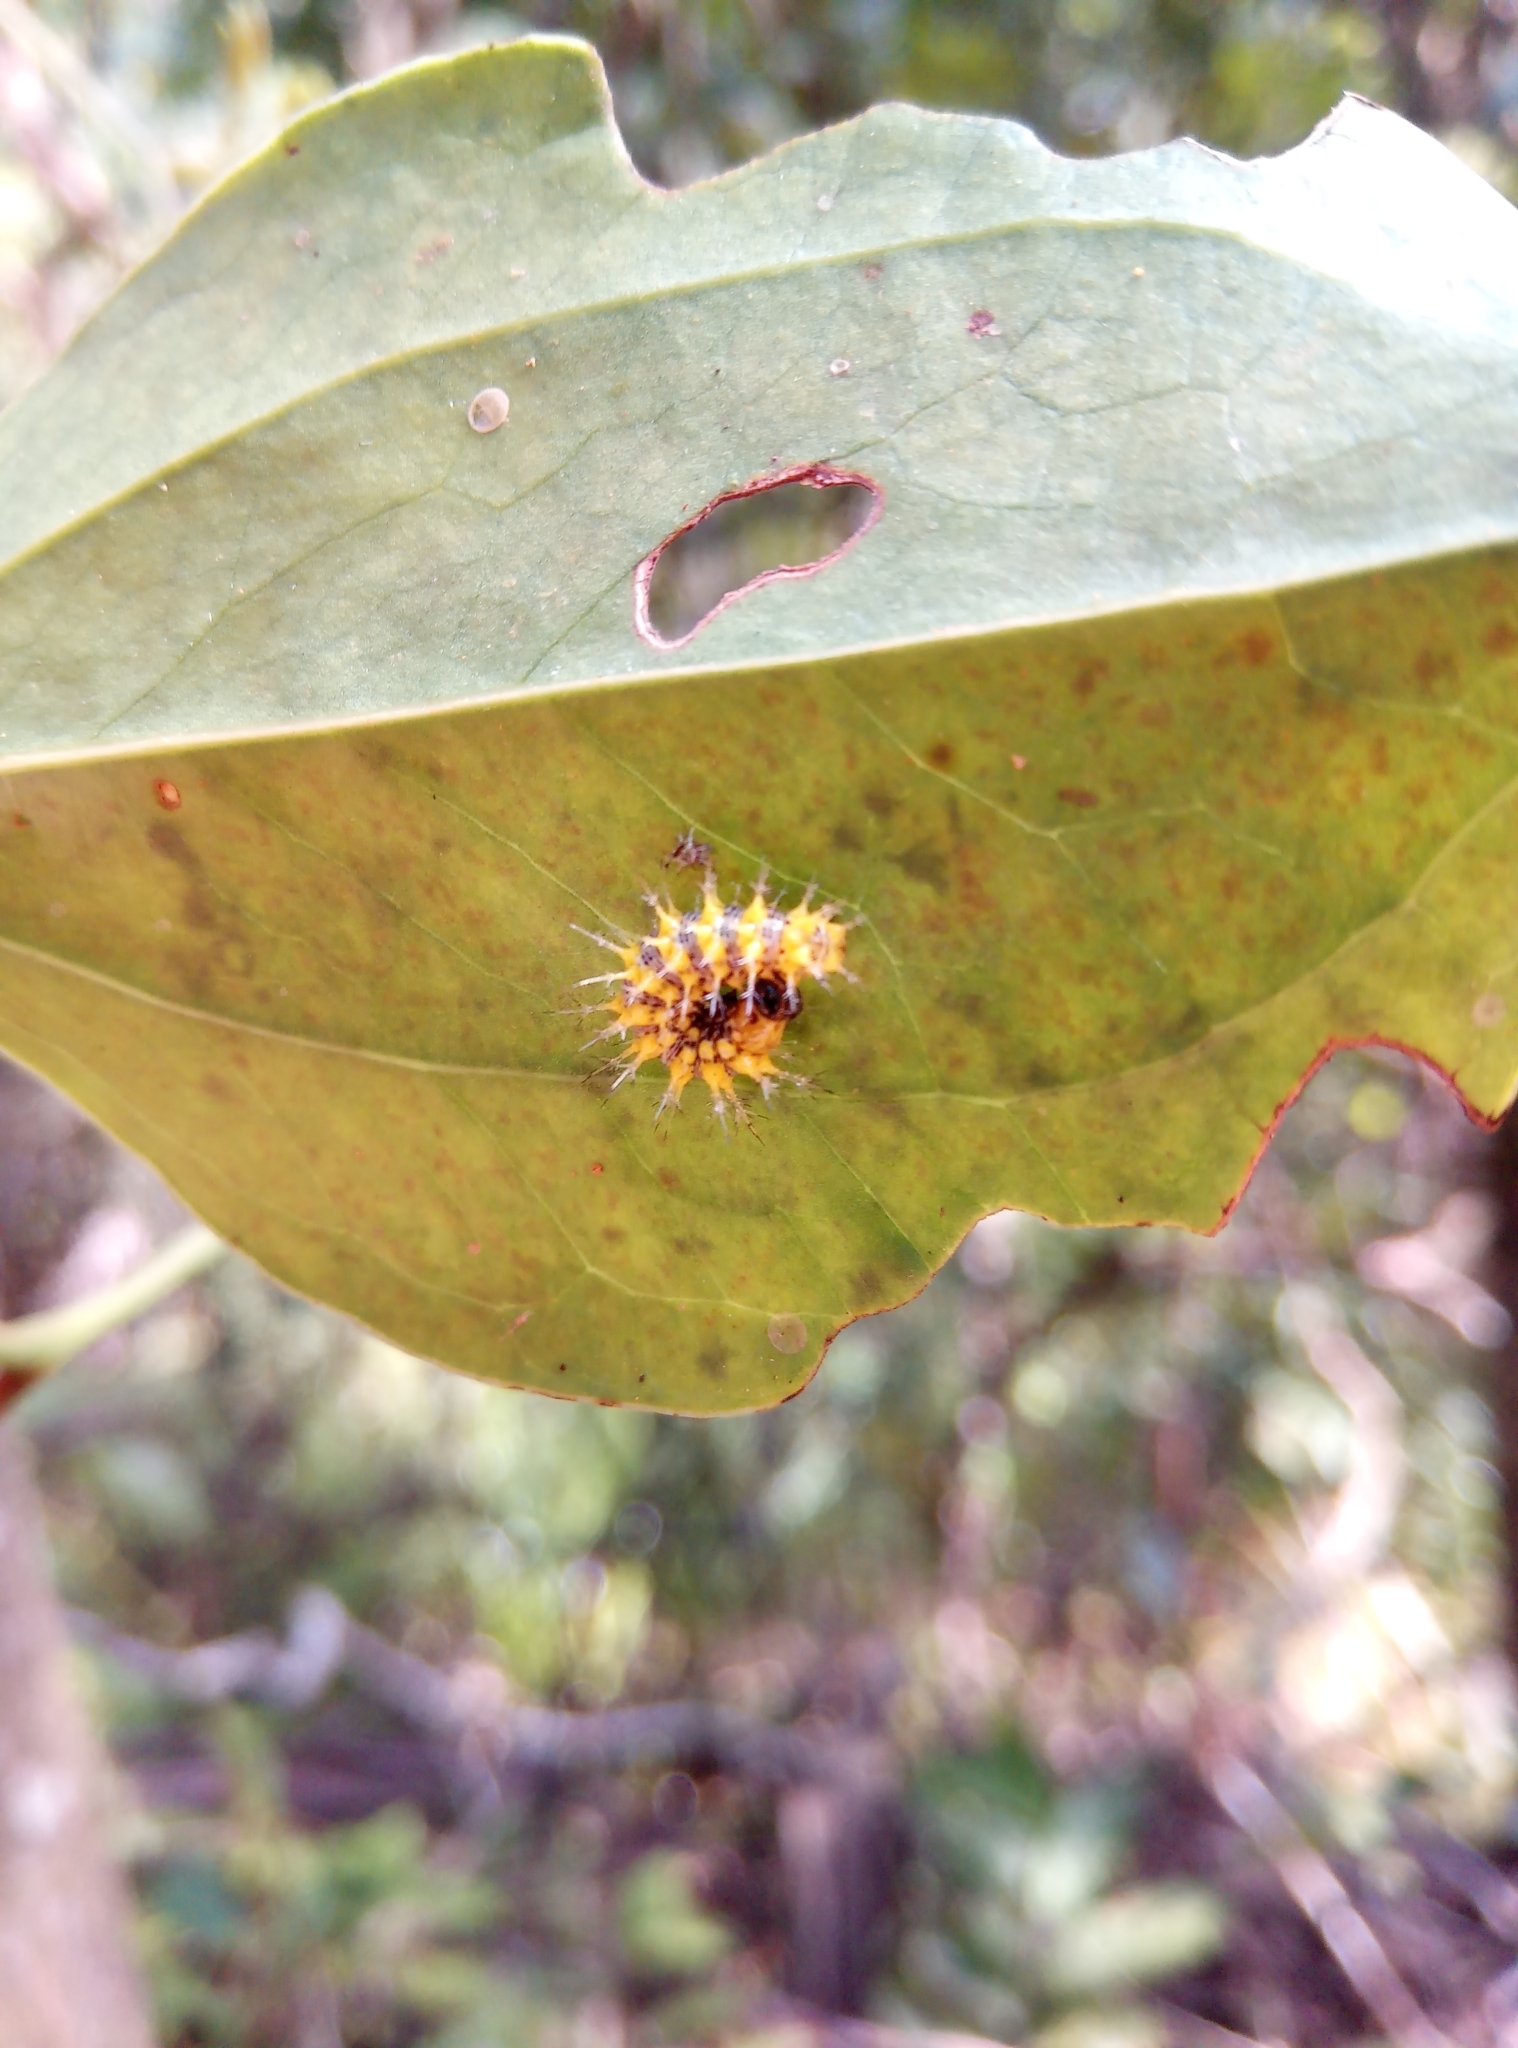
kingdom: Animalia
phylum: Arthropoda
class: Insecta
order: Lepidoptera
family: Nymphalidae
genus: Vanessa
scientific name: Vanessa Kaniska canace
